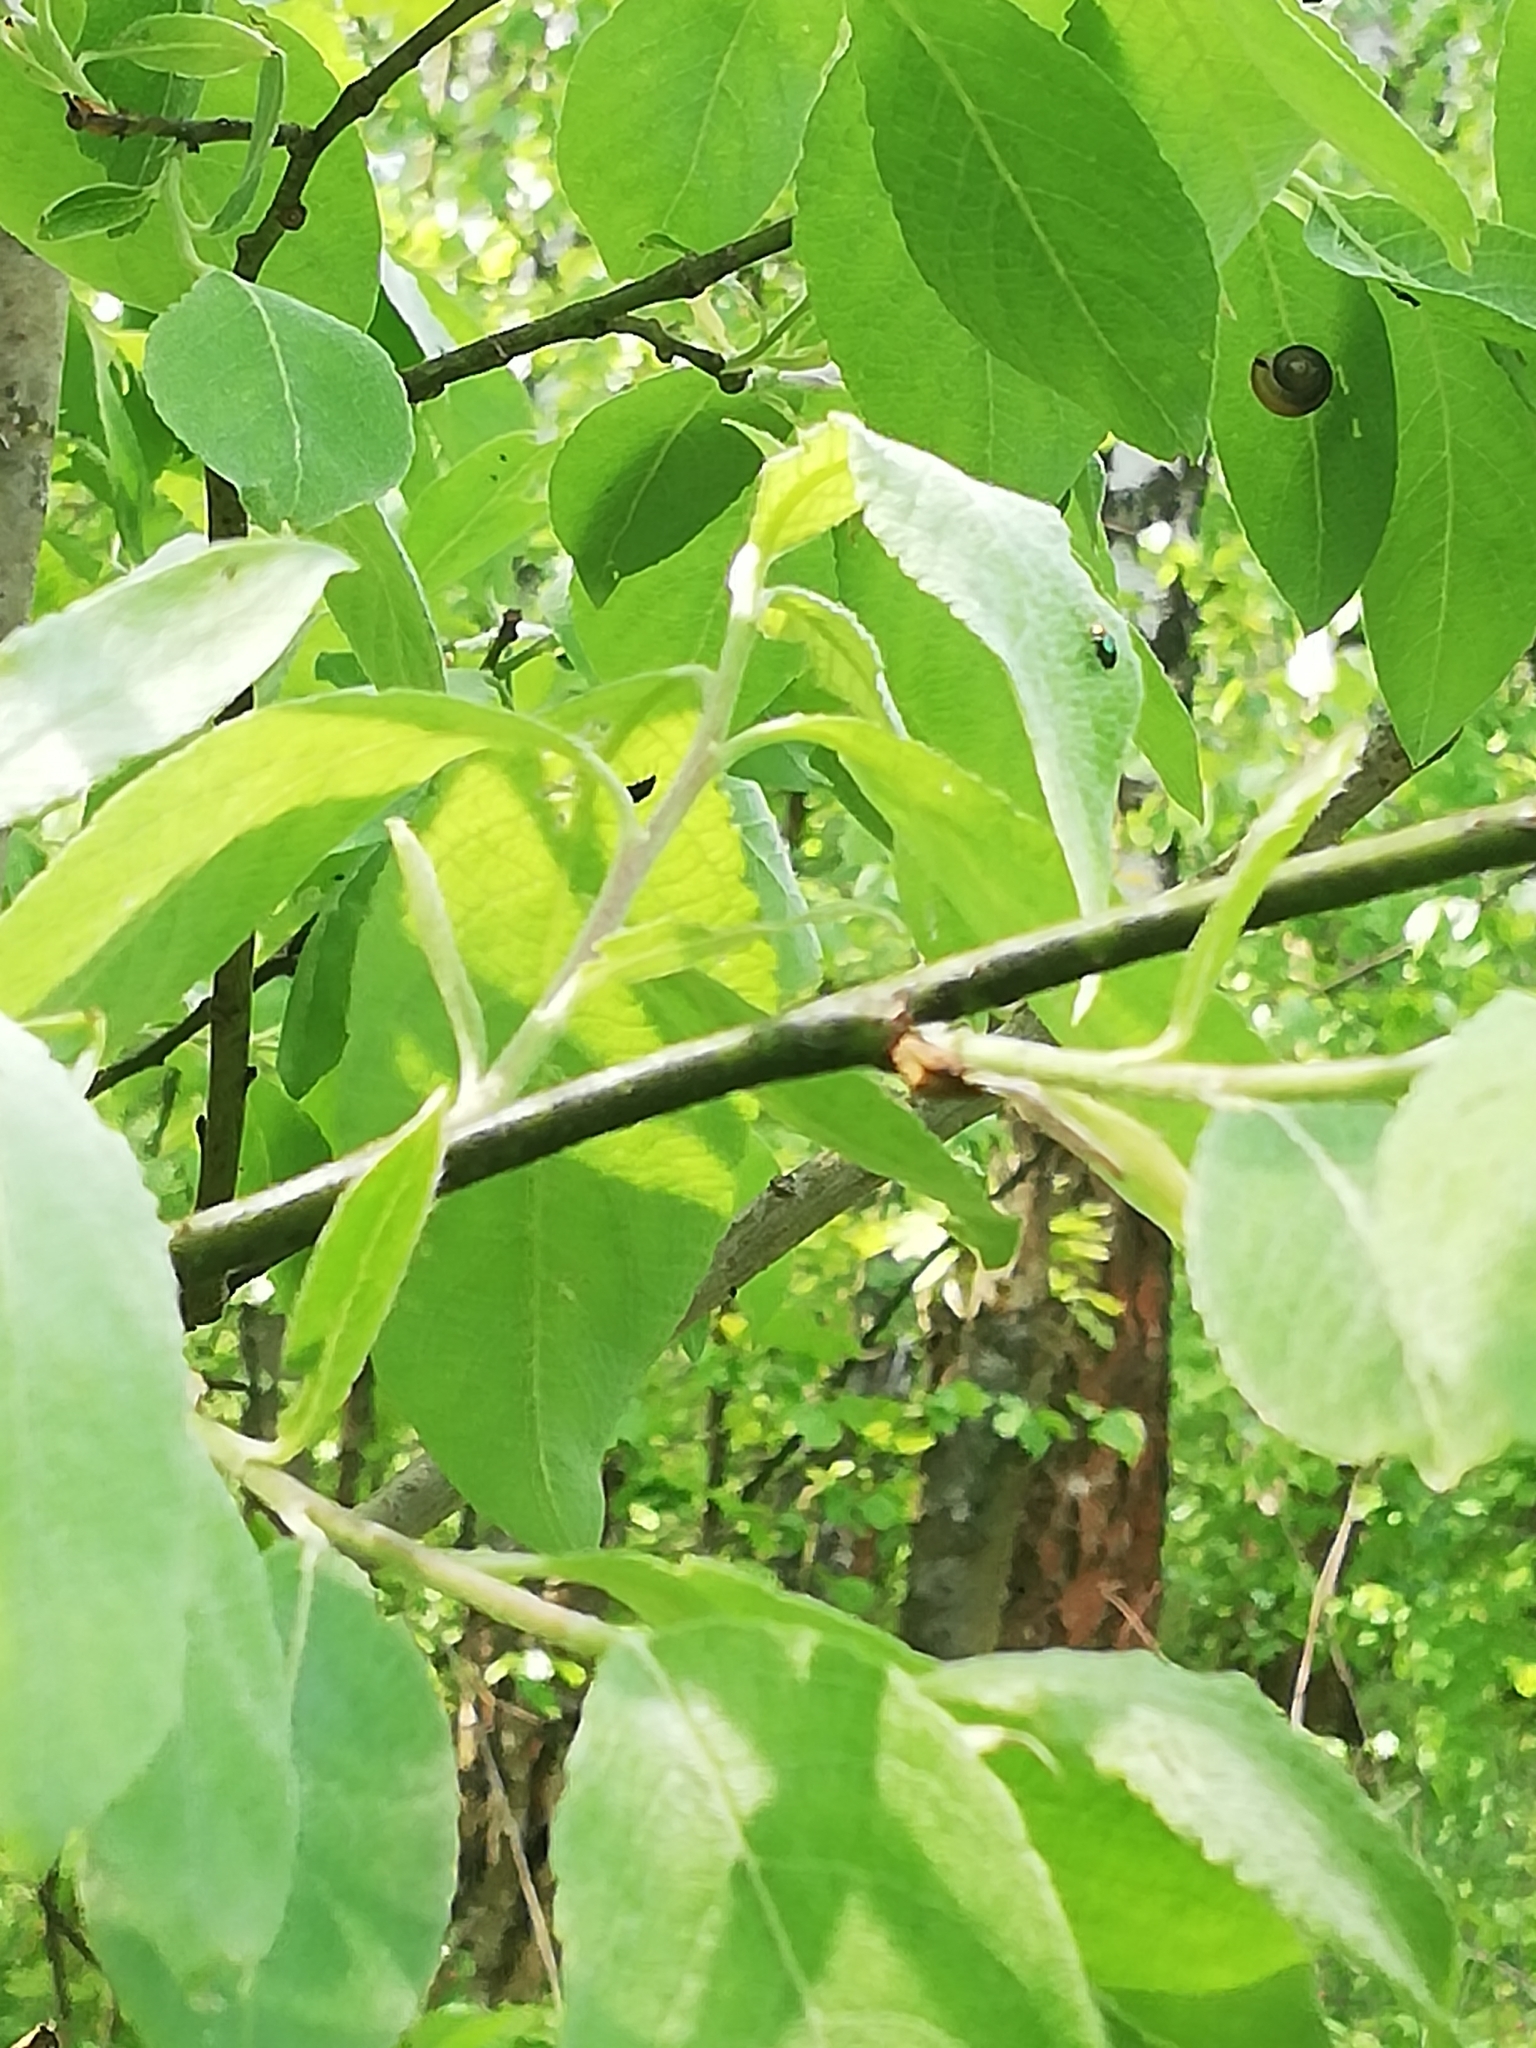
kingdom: Plantae
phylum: Tracheophyta
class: Magnoliopsida
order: Malpighiales
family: Salicaceae
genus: Salix
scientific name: Salix caprea
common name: Goat willow
